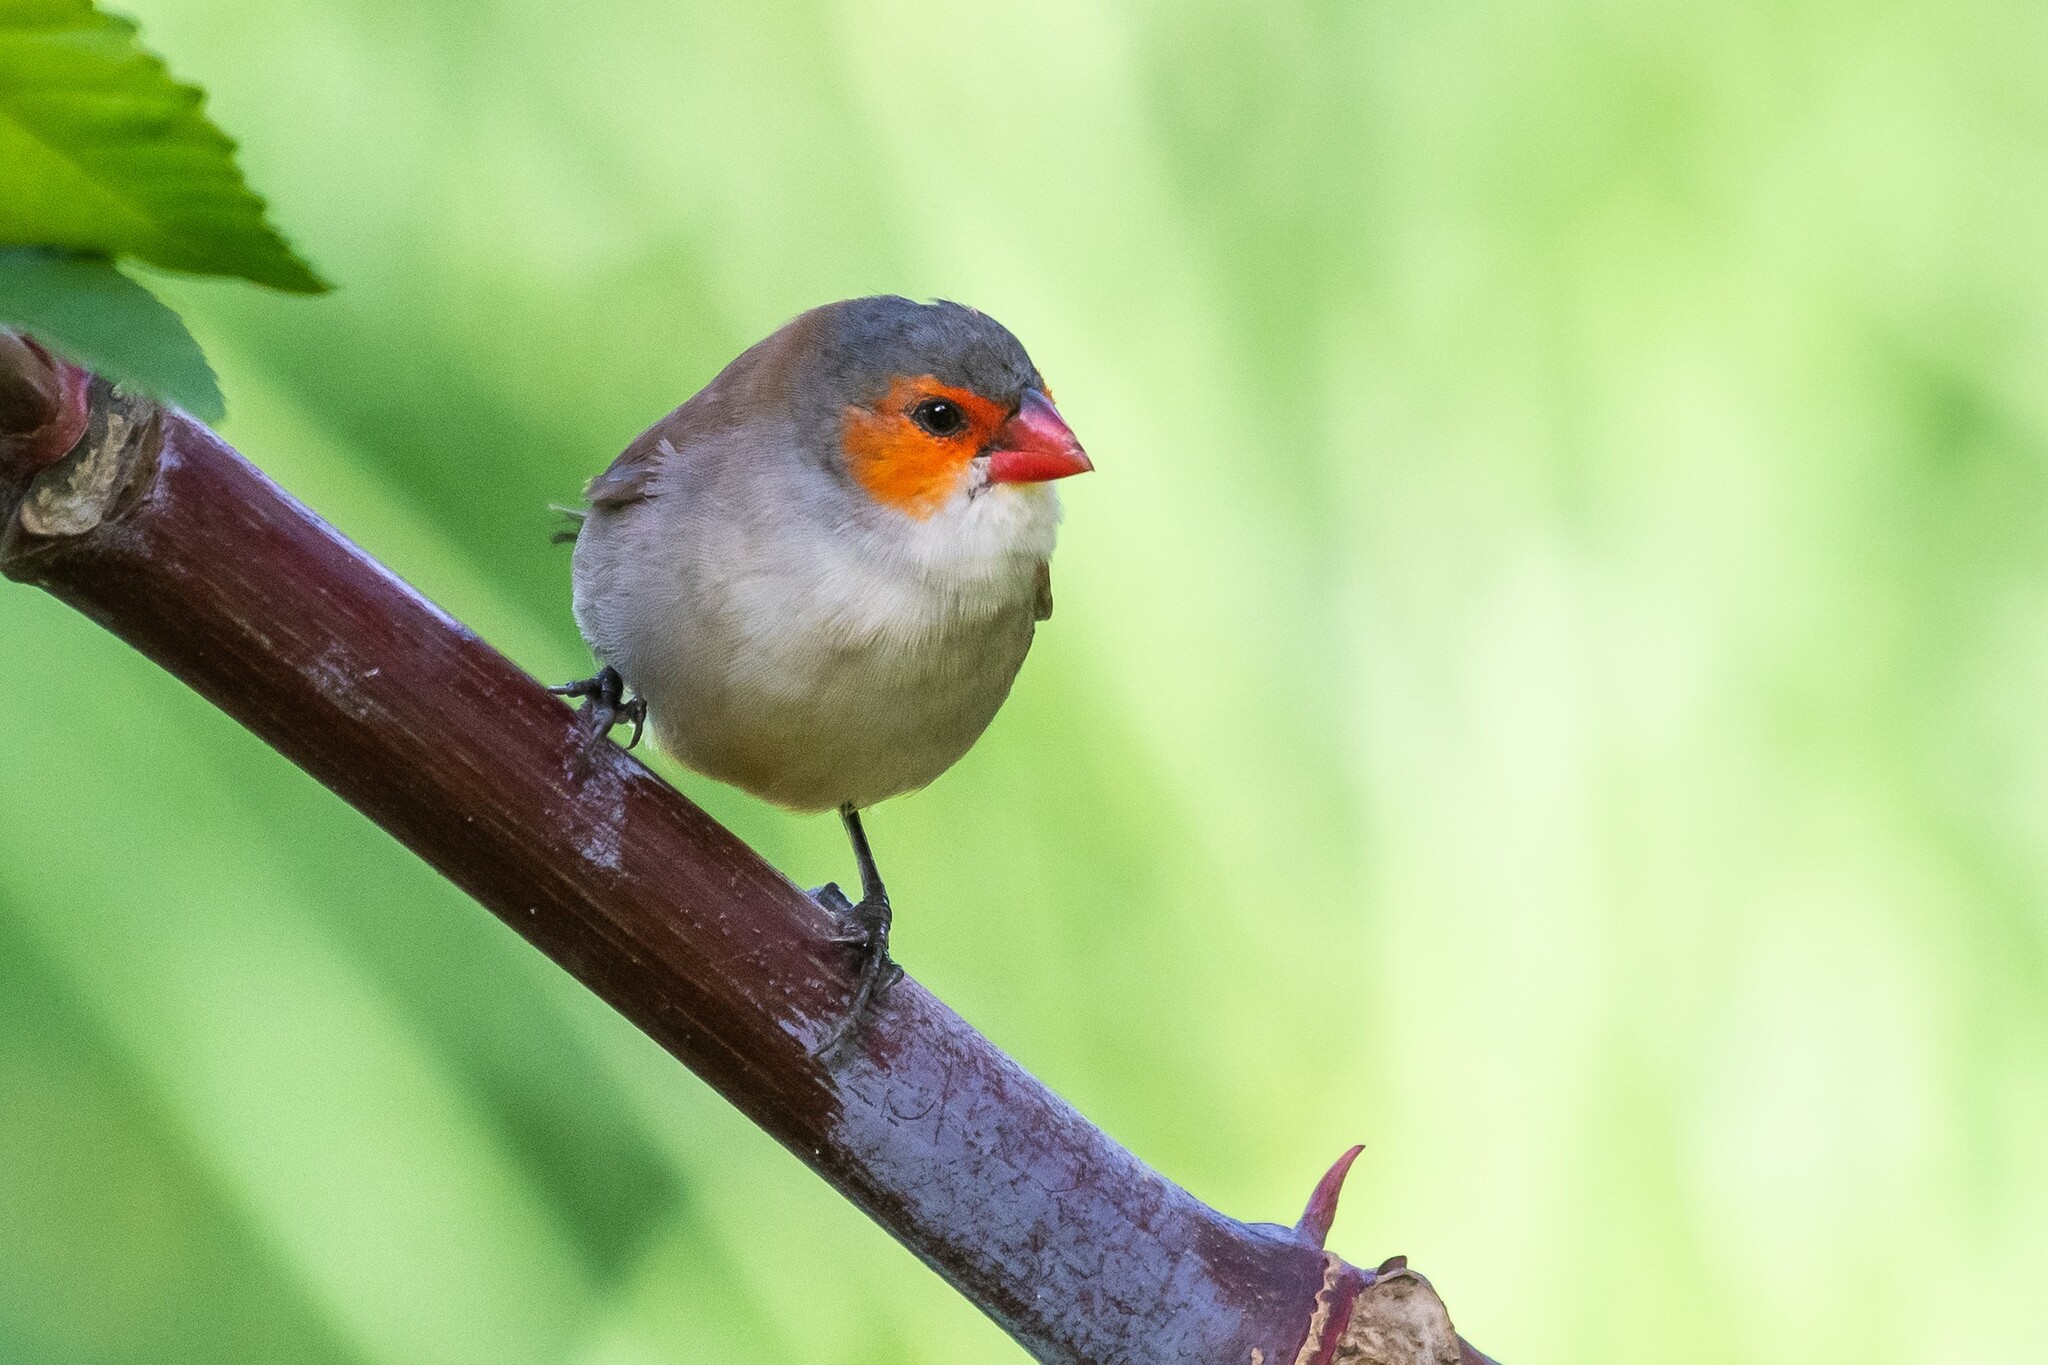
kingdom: Animalia
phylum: Chordata
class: Aves
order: Passeriformes
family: Estrildidae
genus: Estrilda
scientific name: Estrilda melpoda
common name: Orange-cheeked waxbill
